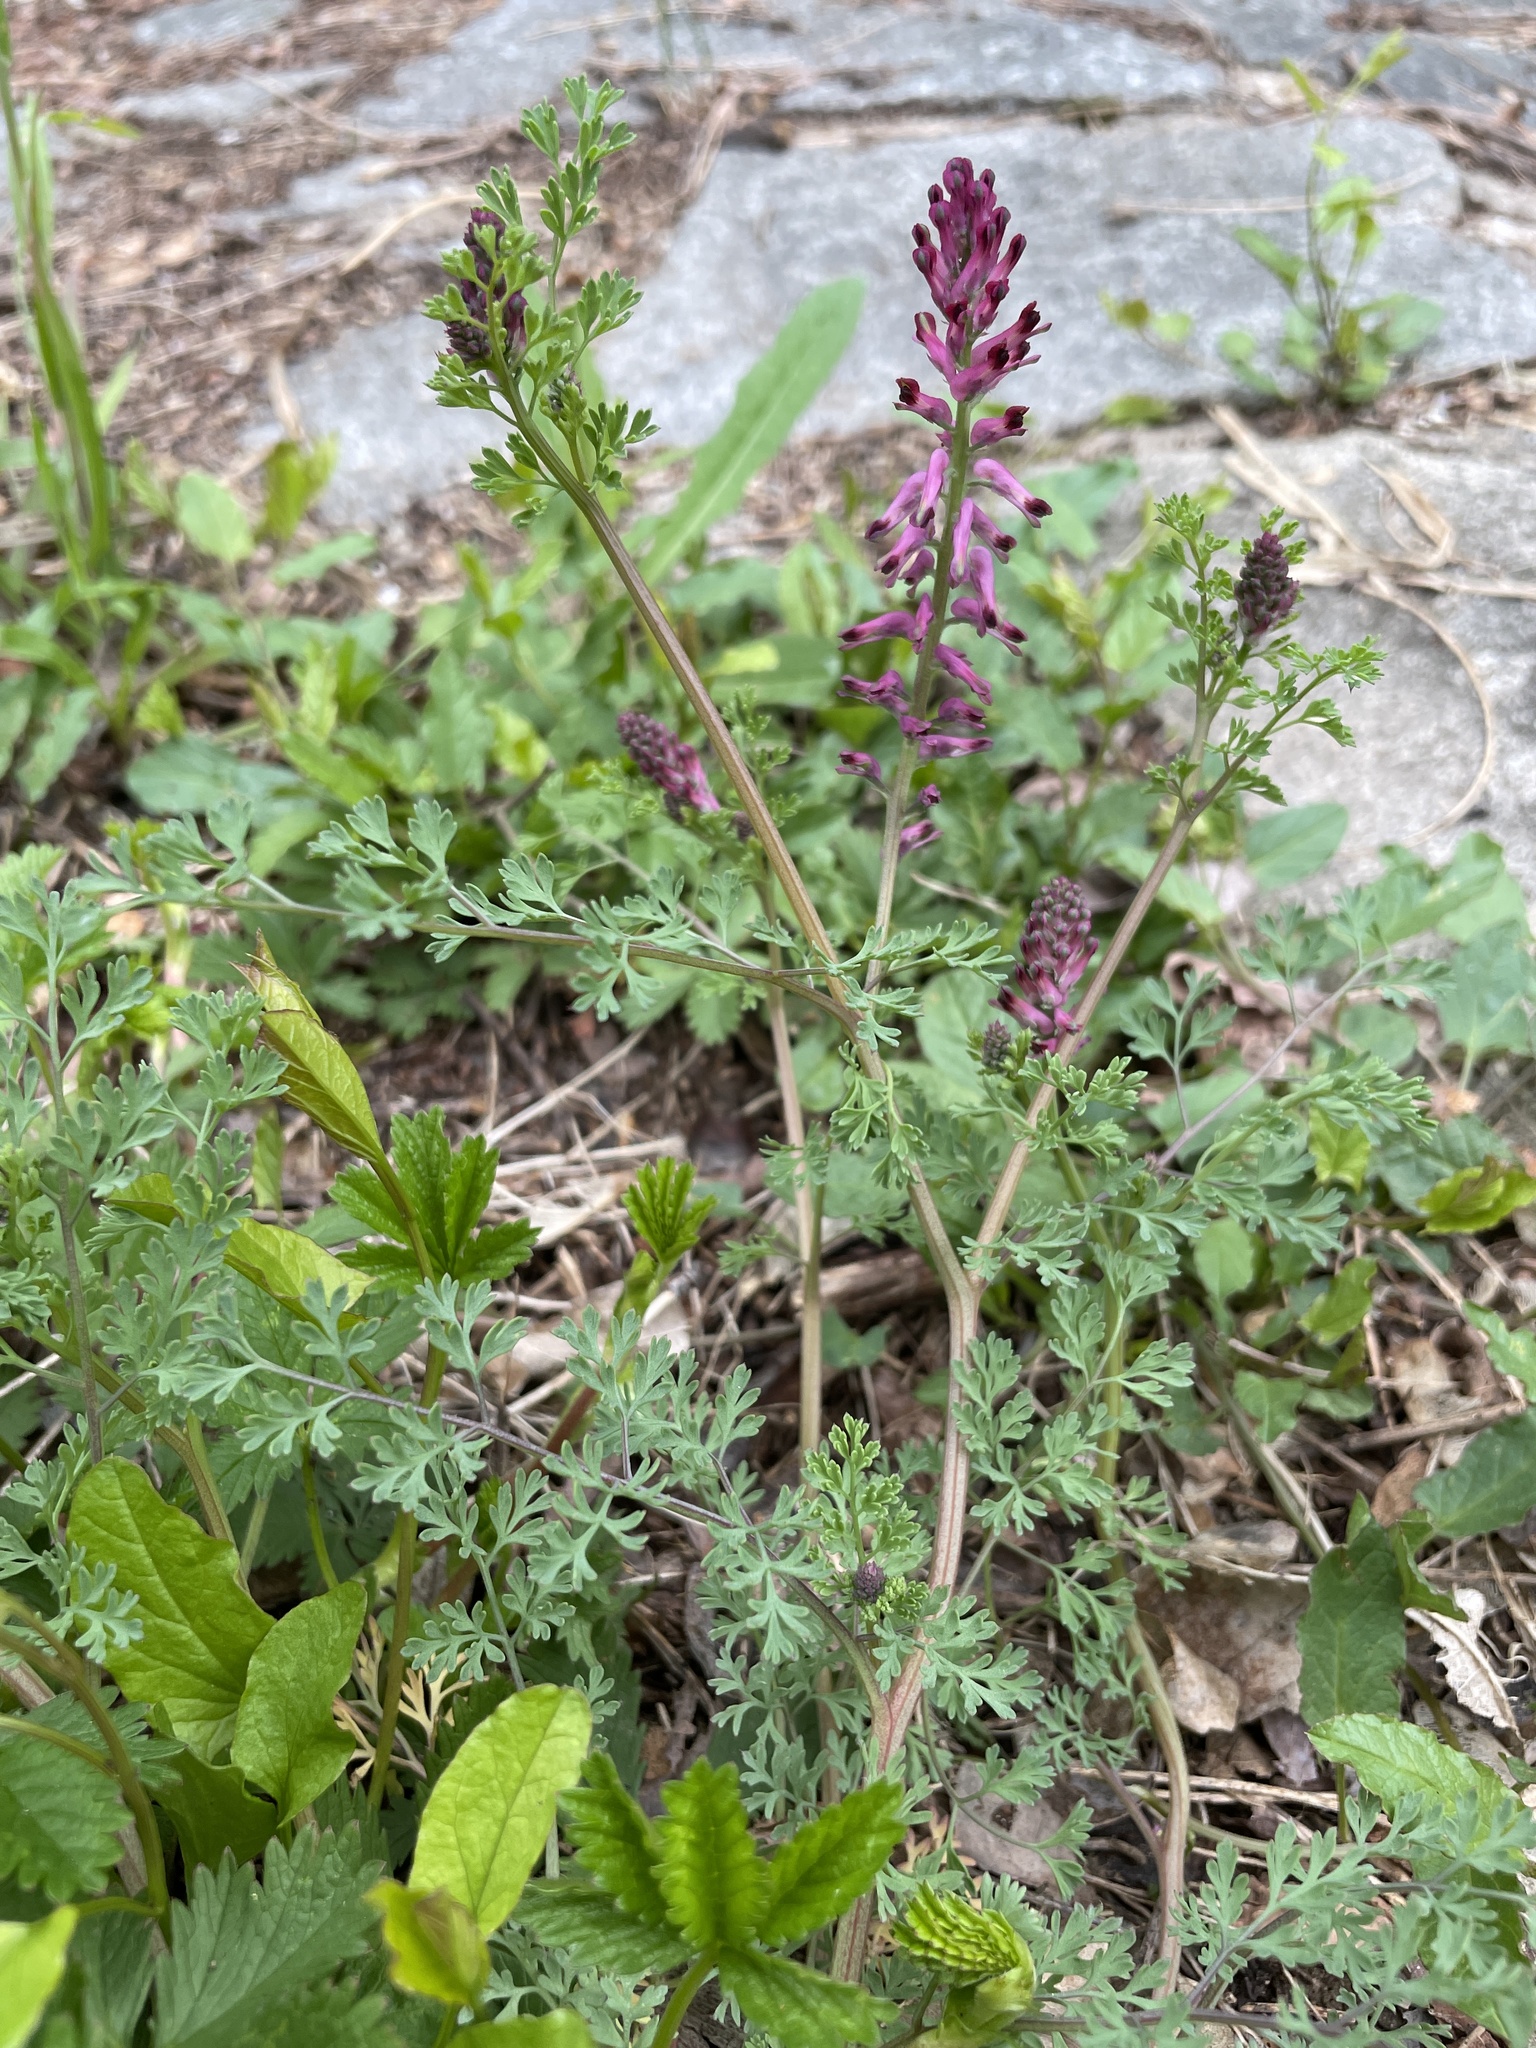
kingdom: Plantae
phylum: Tracheophyta
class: Magnoliopsida
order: Ranunculales
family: Papaveraceae
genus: Fumaria
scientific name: Fumaria officinalis
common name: Common fumitory
